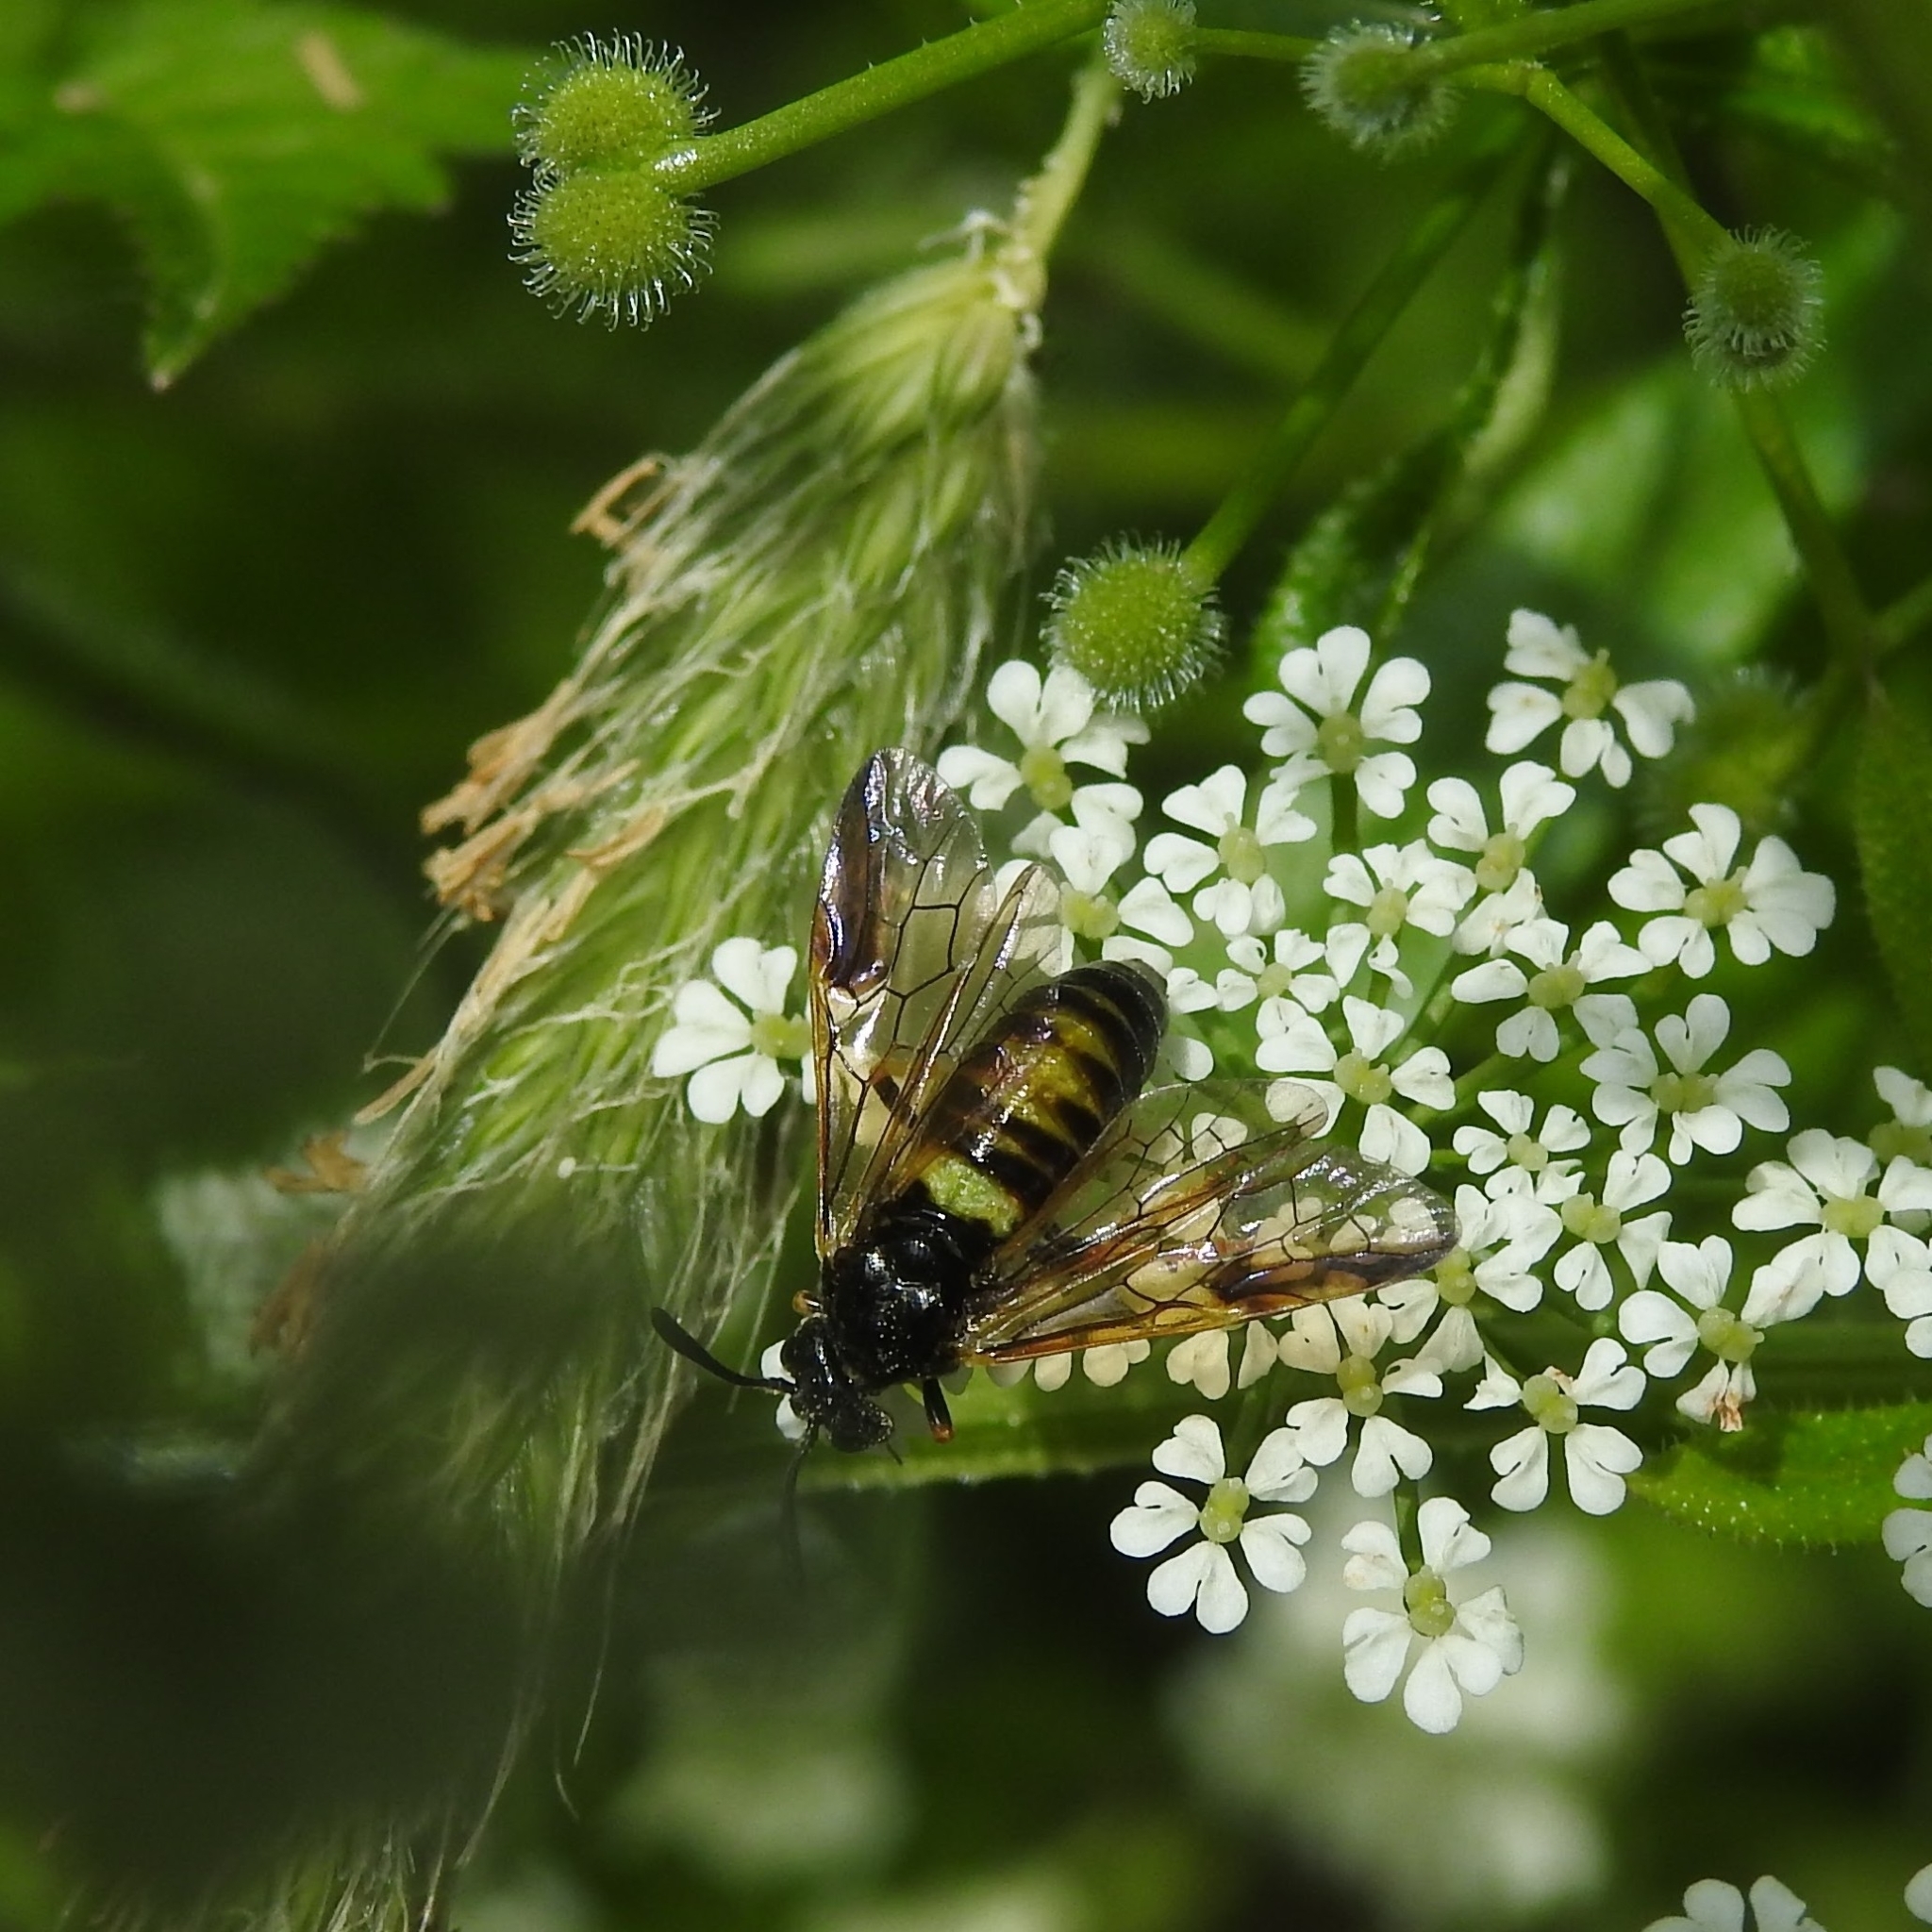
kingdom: Animalia
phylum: Arthropoda
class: Insecta
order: Hymenoptera
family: Argidae
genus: Arge
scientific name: Arge rustica
